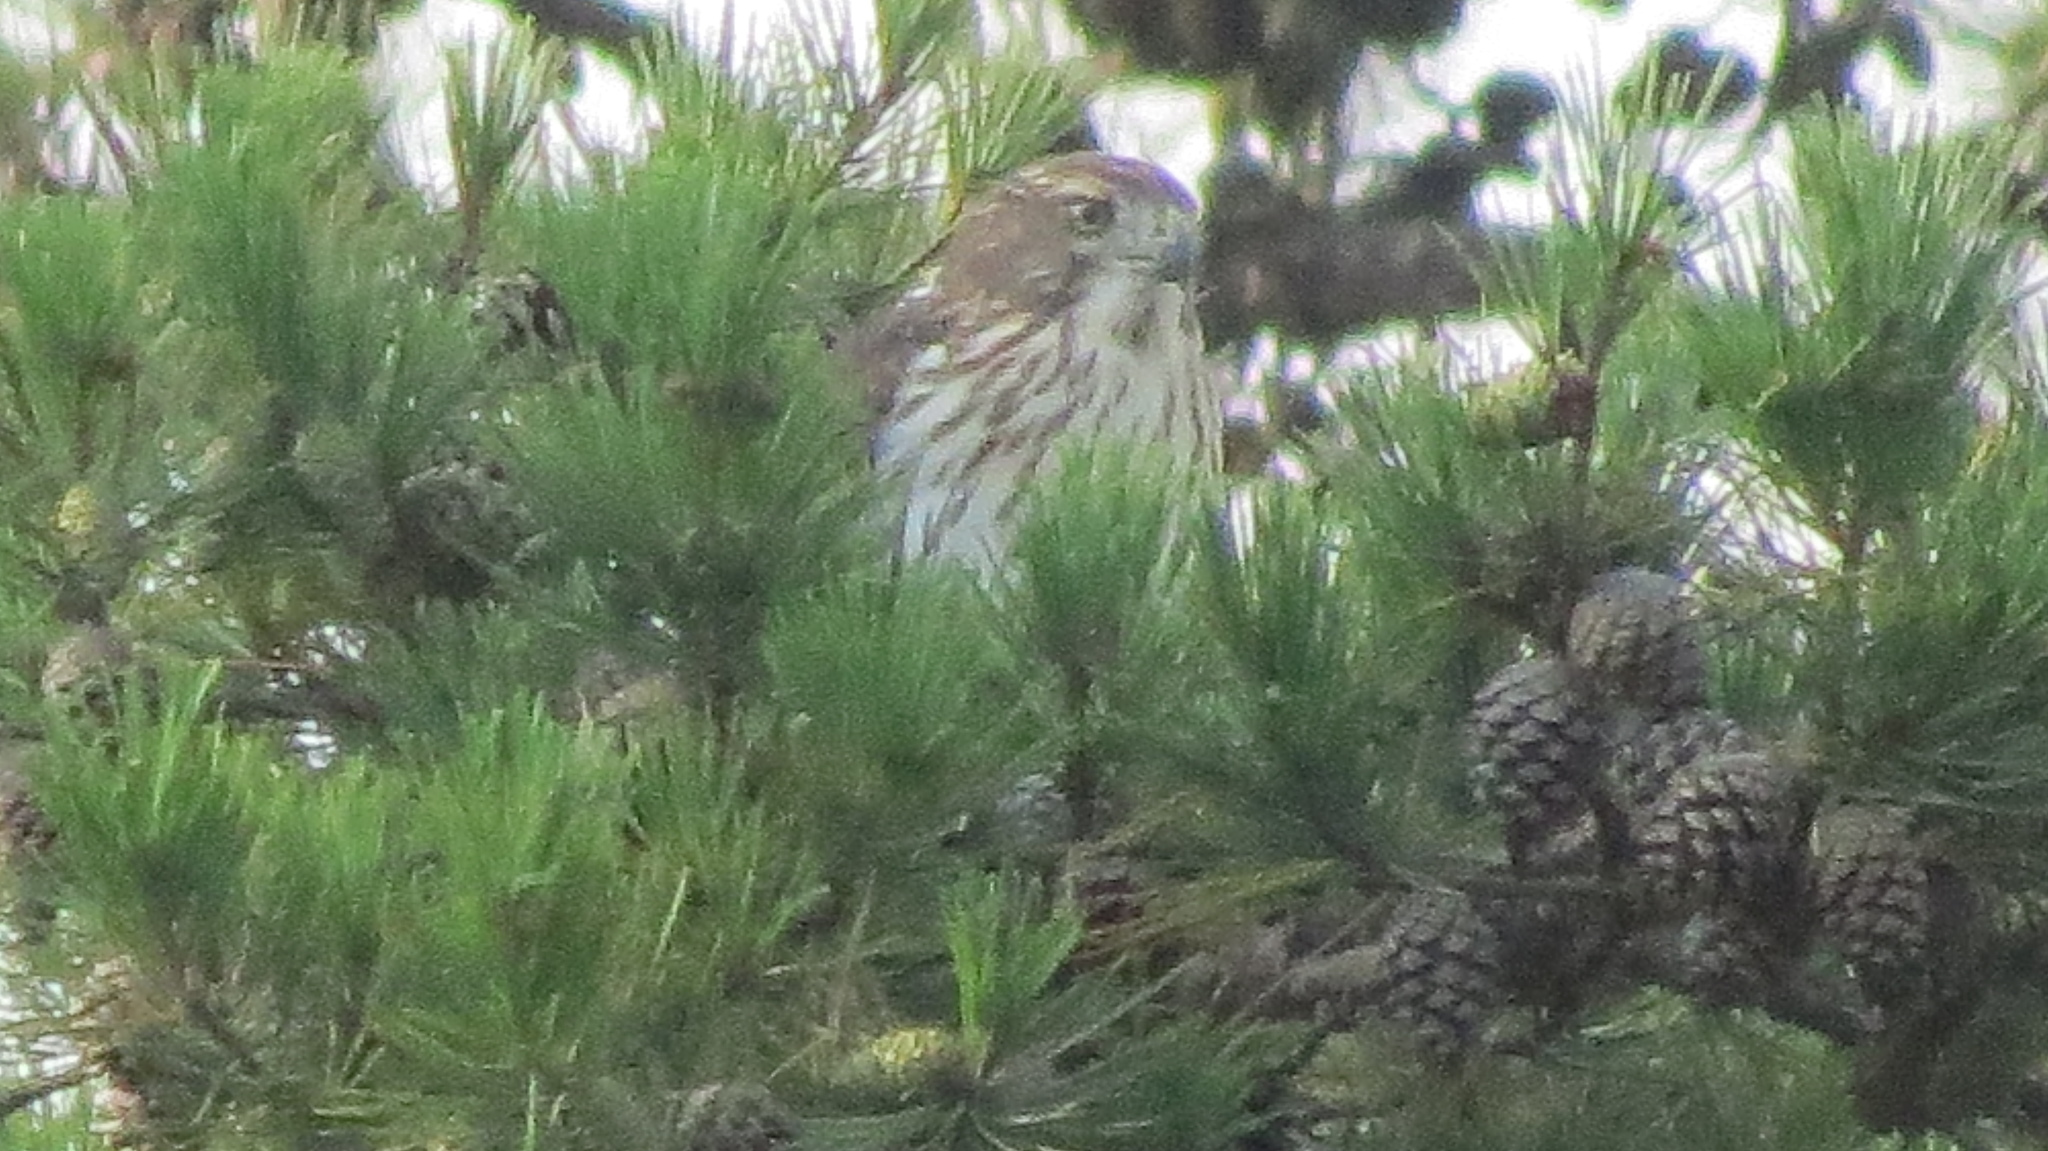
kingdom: Animalia
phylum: Chordata
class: Aves
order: Accipitriformes
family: Accipitridae
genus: Accipiter
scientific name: Accipiter cooperii
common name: Cooper's hawk
